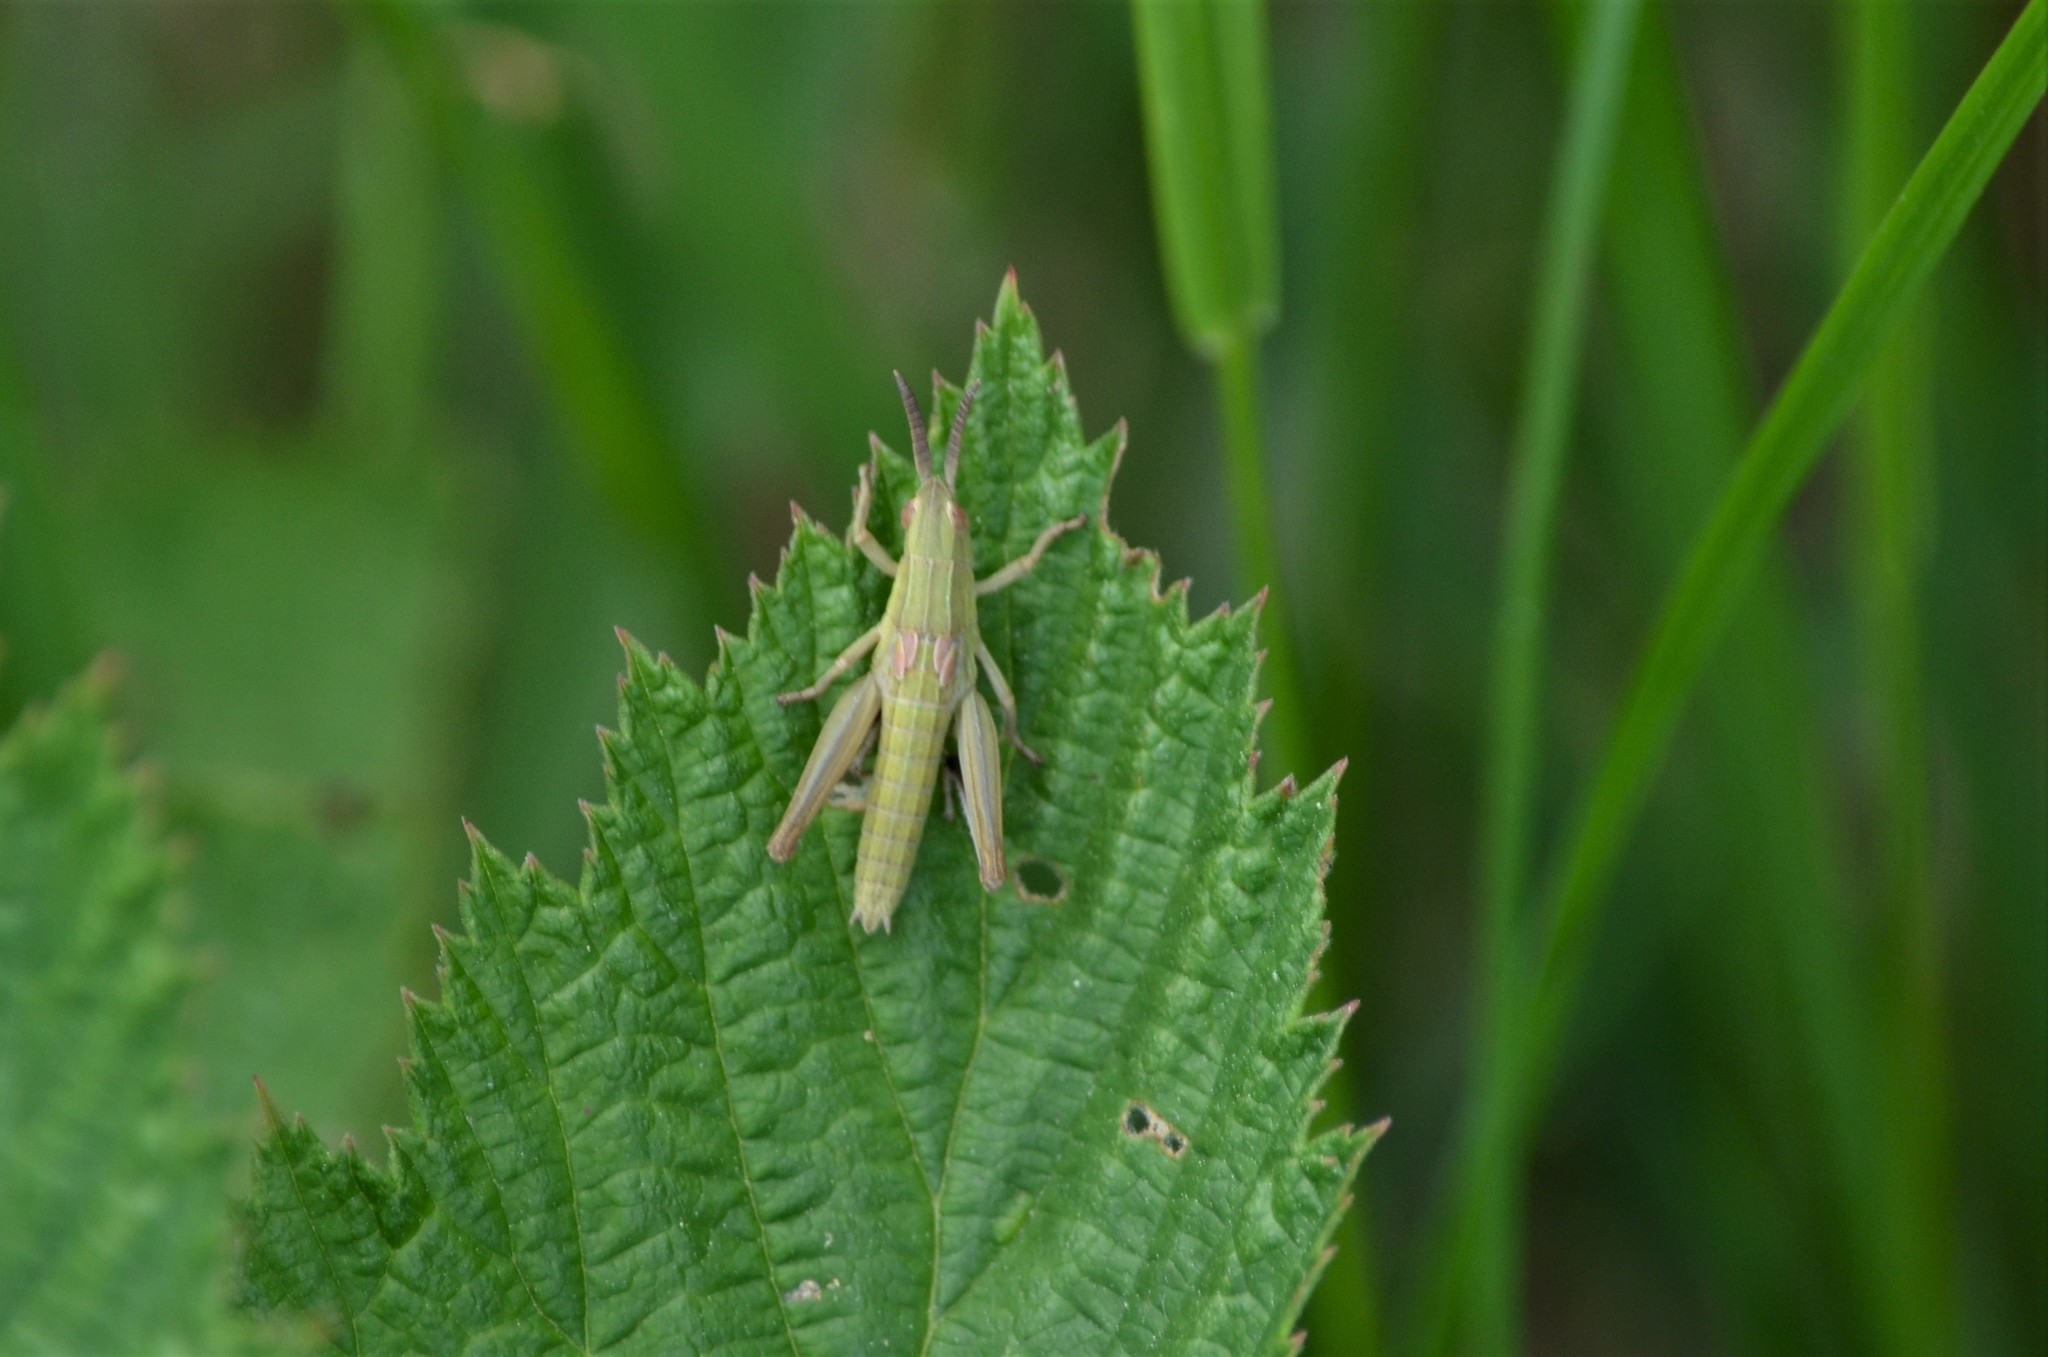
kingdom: Animalia
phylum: Arthropoda
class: Insecta
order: Orthoptera
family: Acrididae
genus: Euthystira
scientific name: Euthystira brachyptera
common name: Small gold grasshopper
